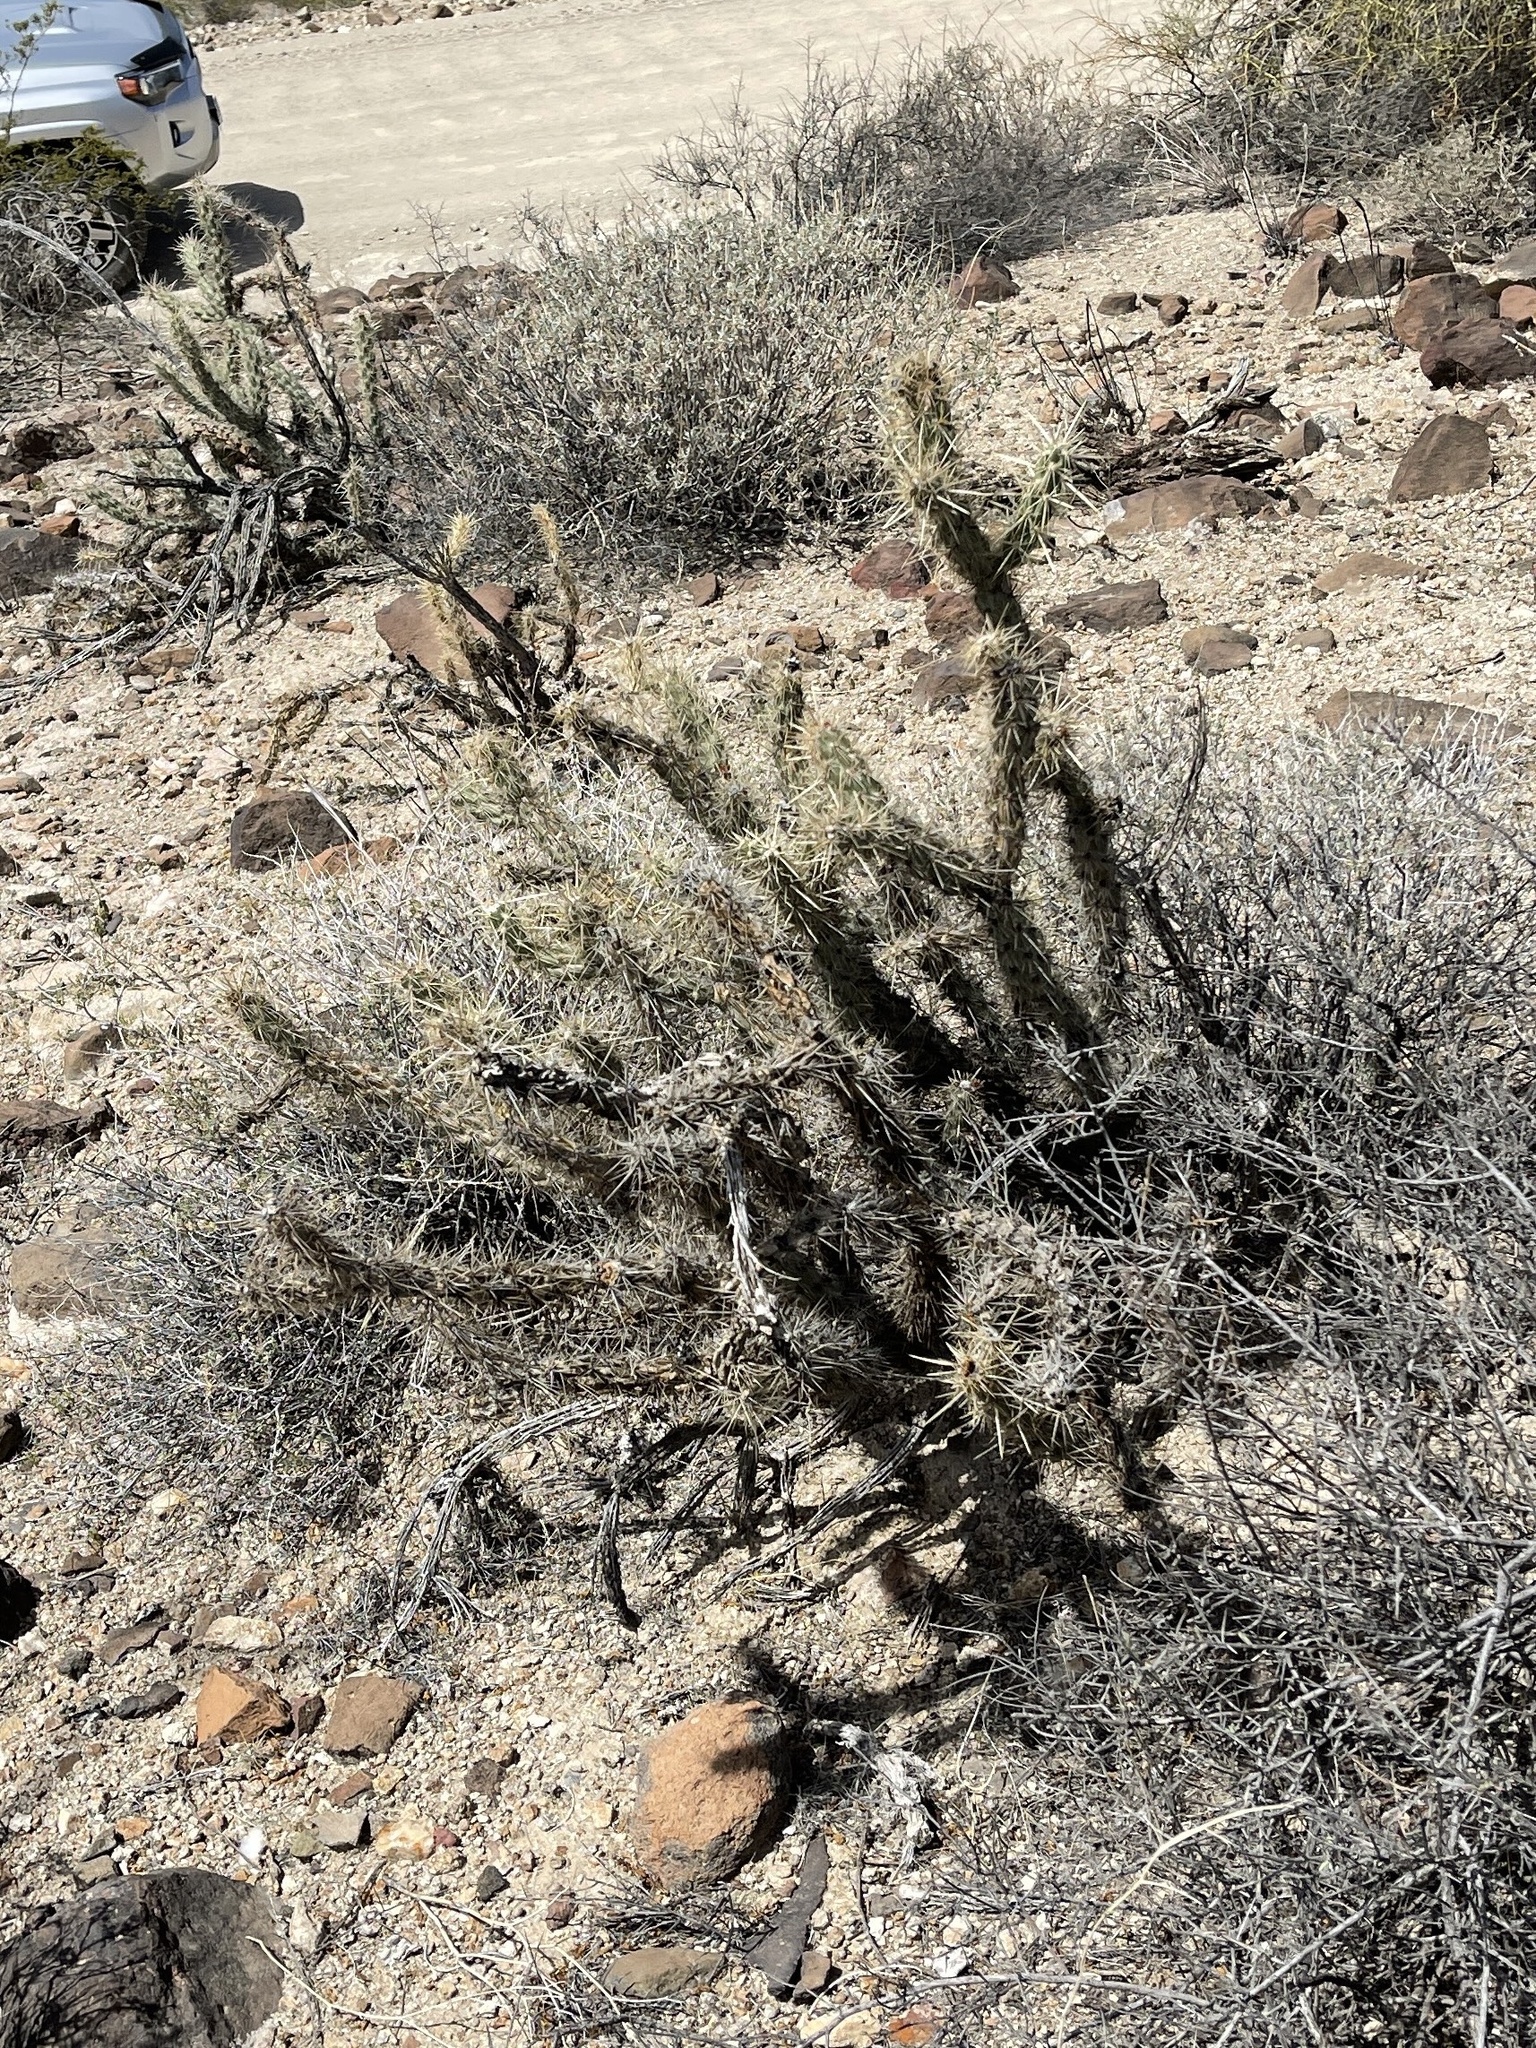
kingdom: Plantae
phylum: Tracheophyta
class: Magnoliopsida
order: Caryophyllales
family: Cactaceae
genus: Cylindropuntia
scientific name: Cylindropuntia acanthocarpa
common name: Buckhorn cholla
